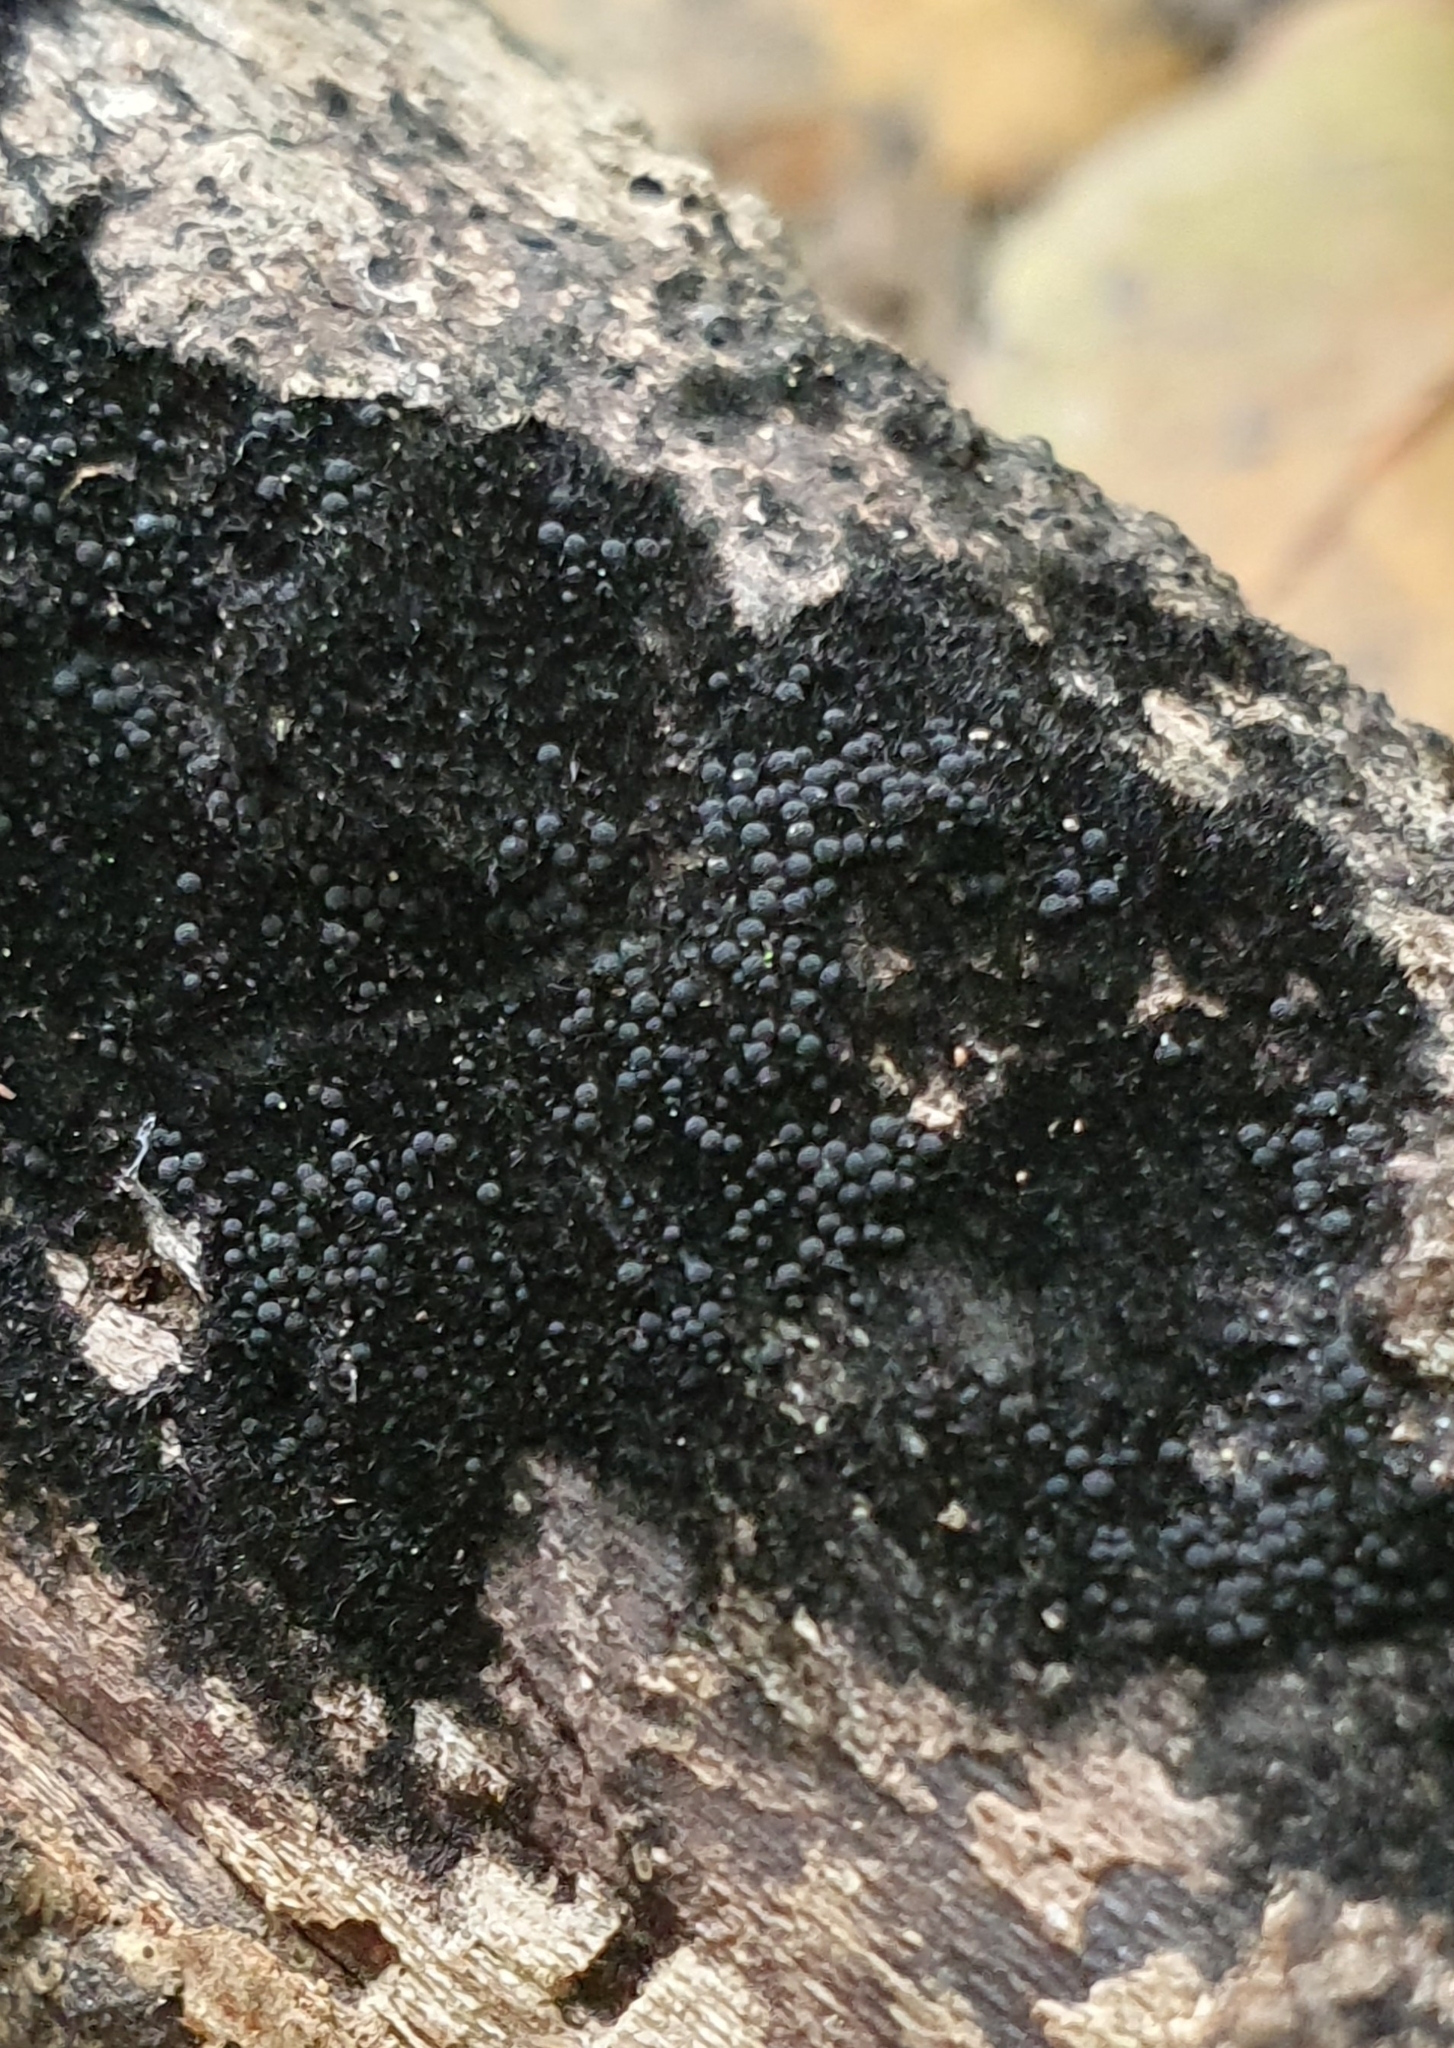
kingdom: Fungi
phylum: Ascomycota
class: Sordariomycetes
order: Coronophorales
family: Chaetosphaerellaceae
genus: Chaetosphaerella
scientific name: Chaetosphaerella phaeostroma
